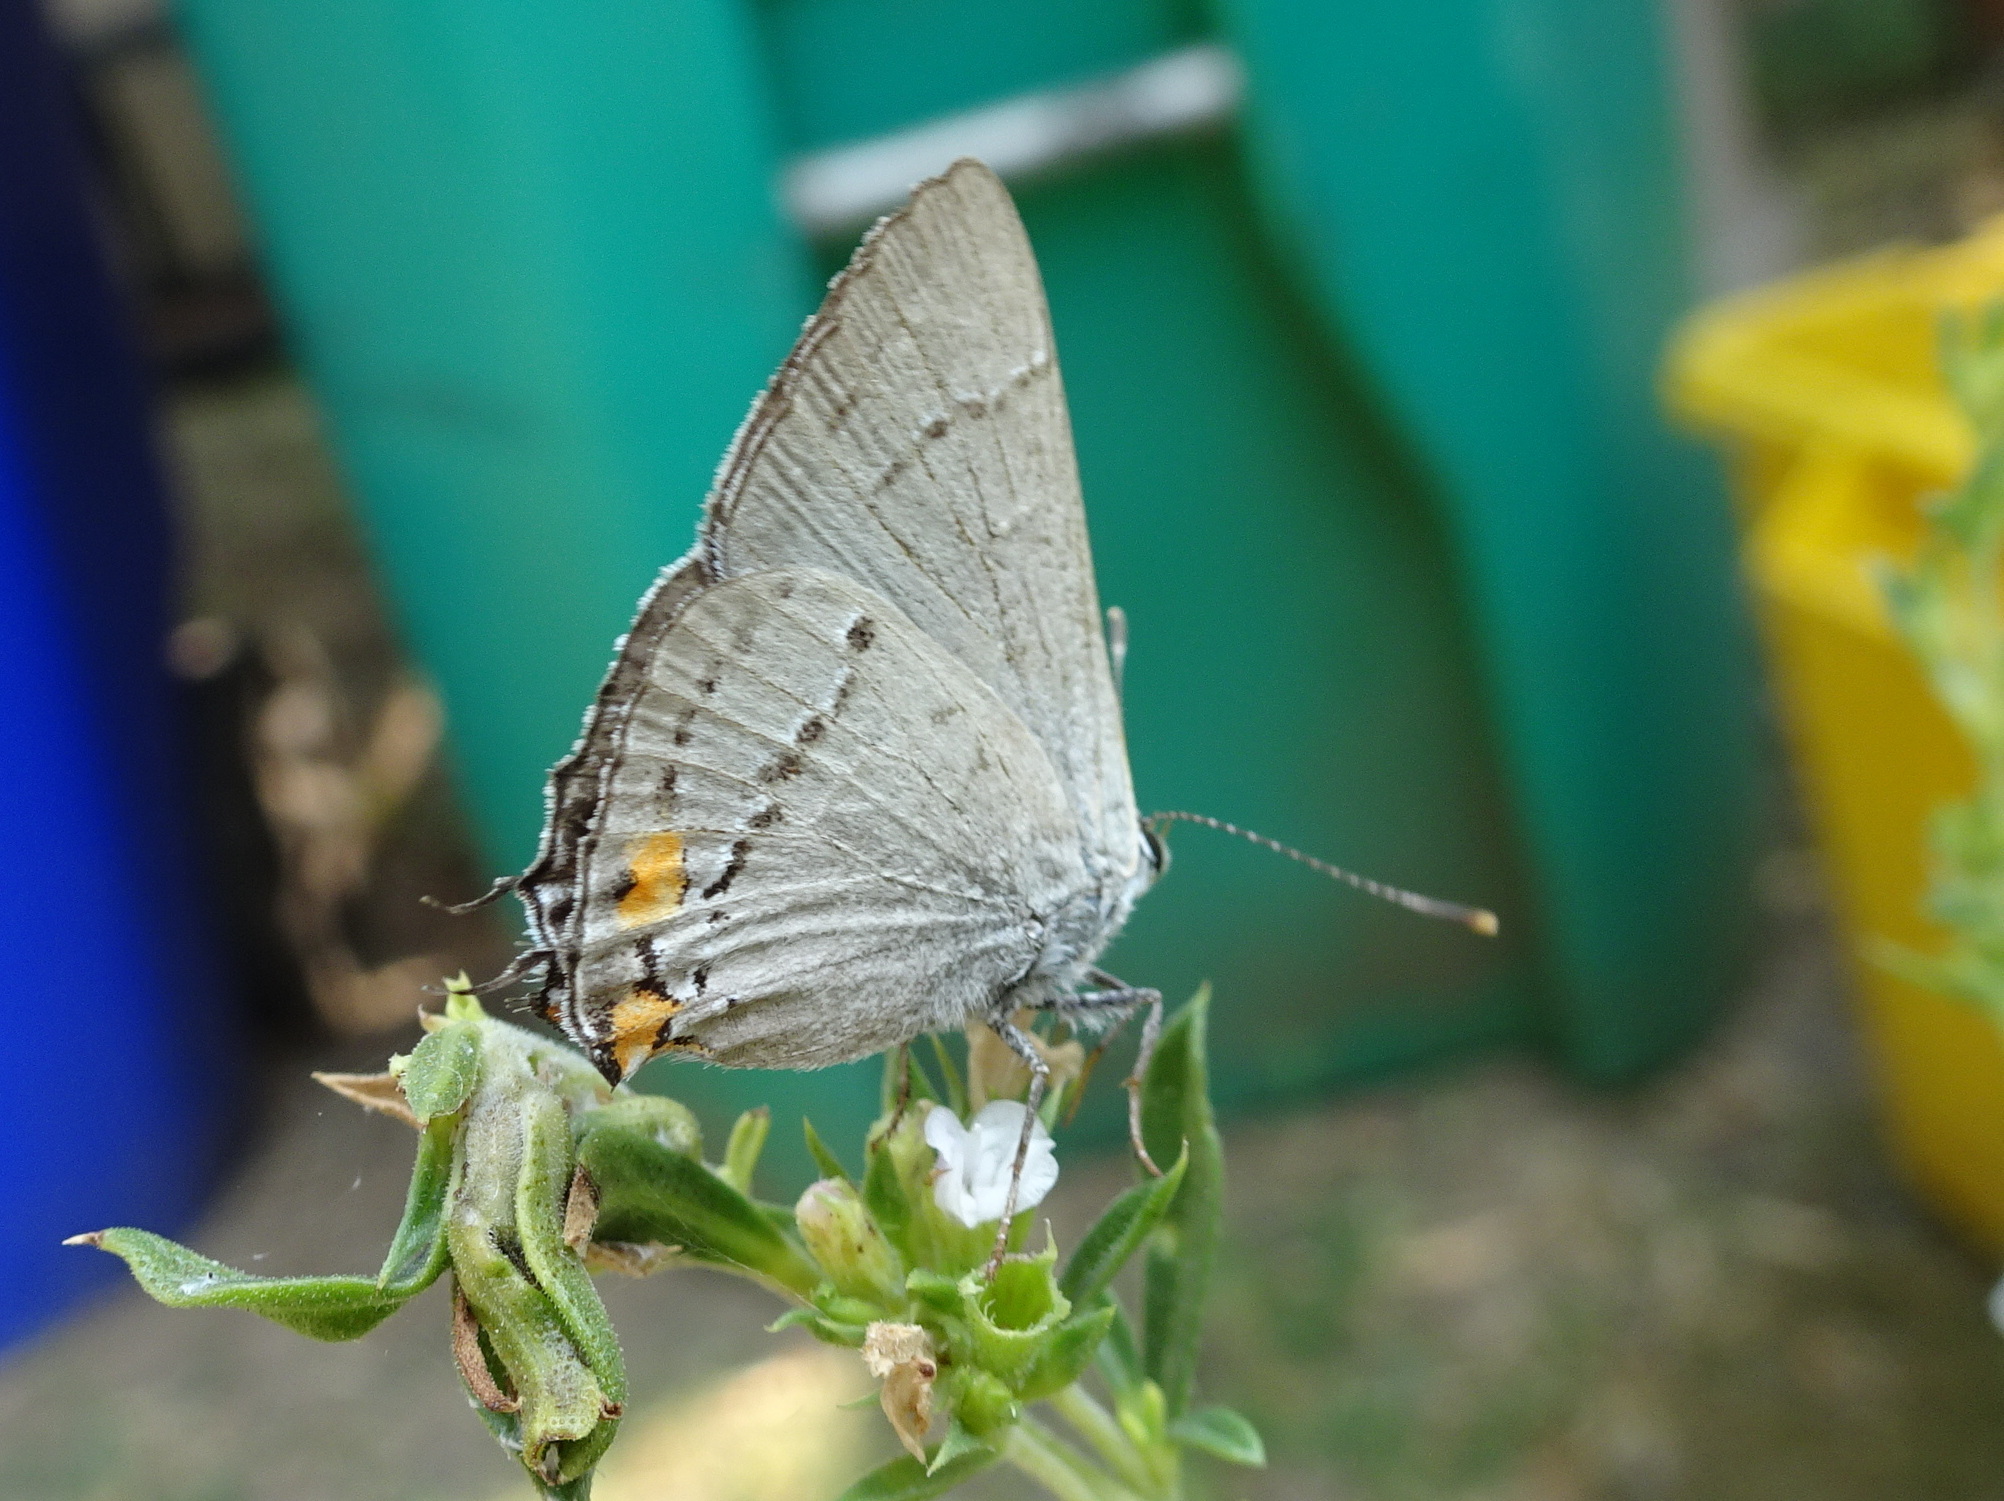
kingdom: Animalia
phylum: Arthropoda
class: Insecta
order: Lepidoptera
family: Lycaenidae
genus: Strymon
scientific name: Strymon melinus
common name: Gray hairstreak
